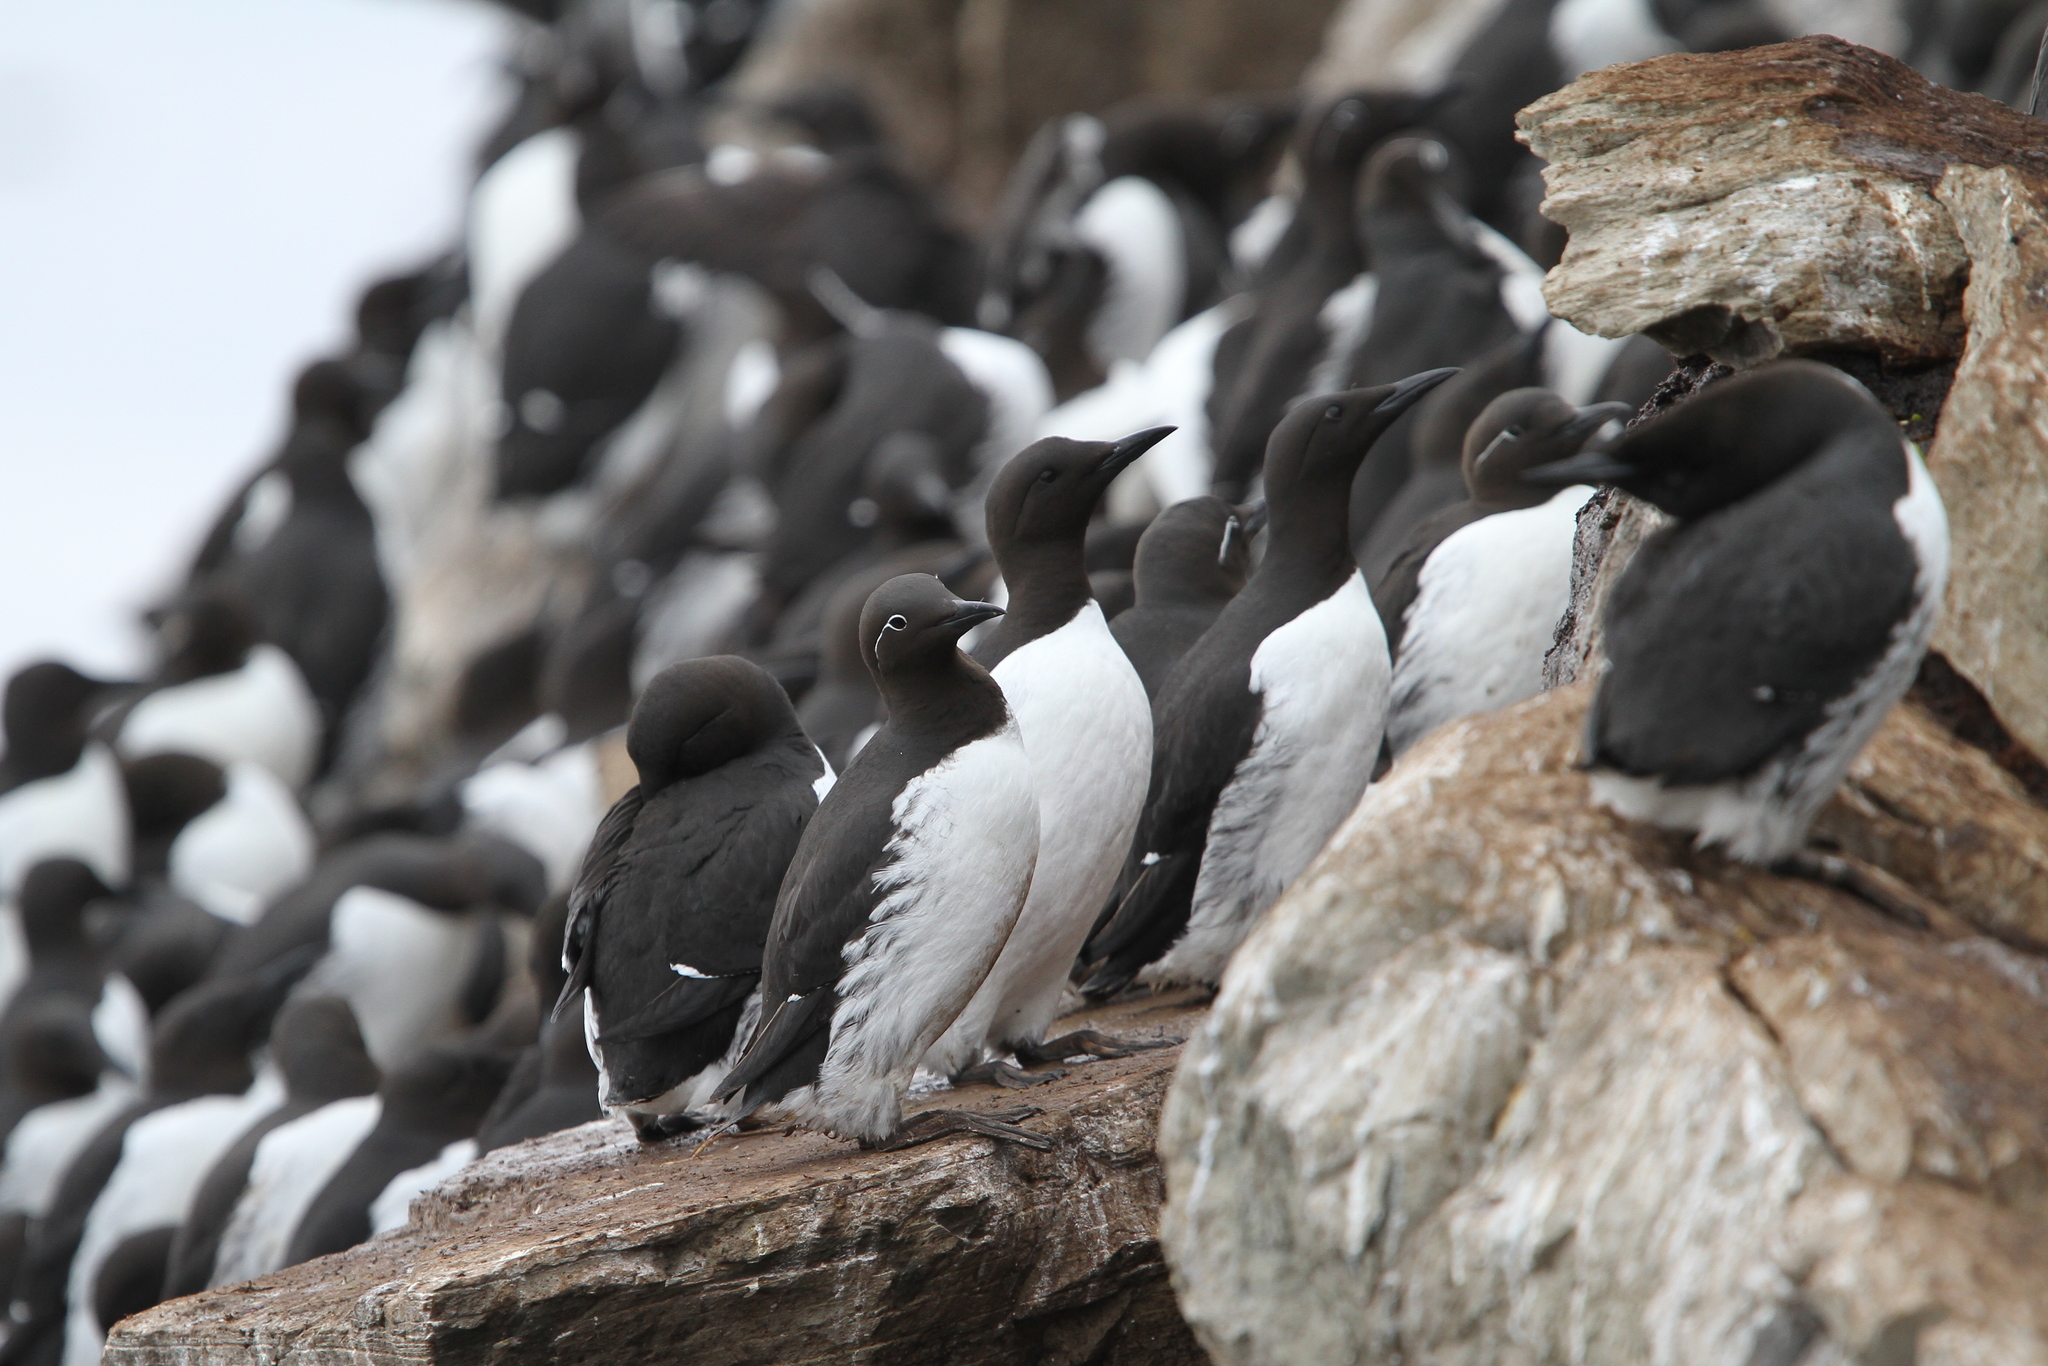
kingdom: Animalia
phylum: Chordata
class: Aves
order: Charadriiformes
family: Alcidae
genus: Uria
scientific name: Uria aalge
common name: Common murre
